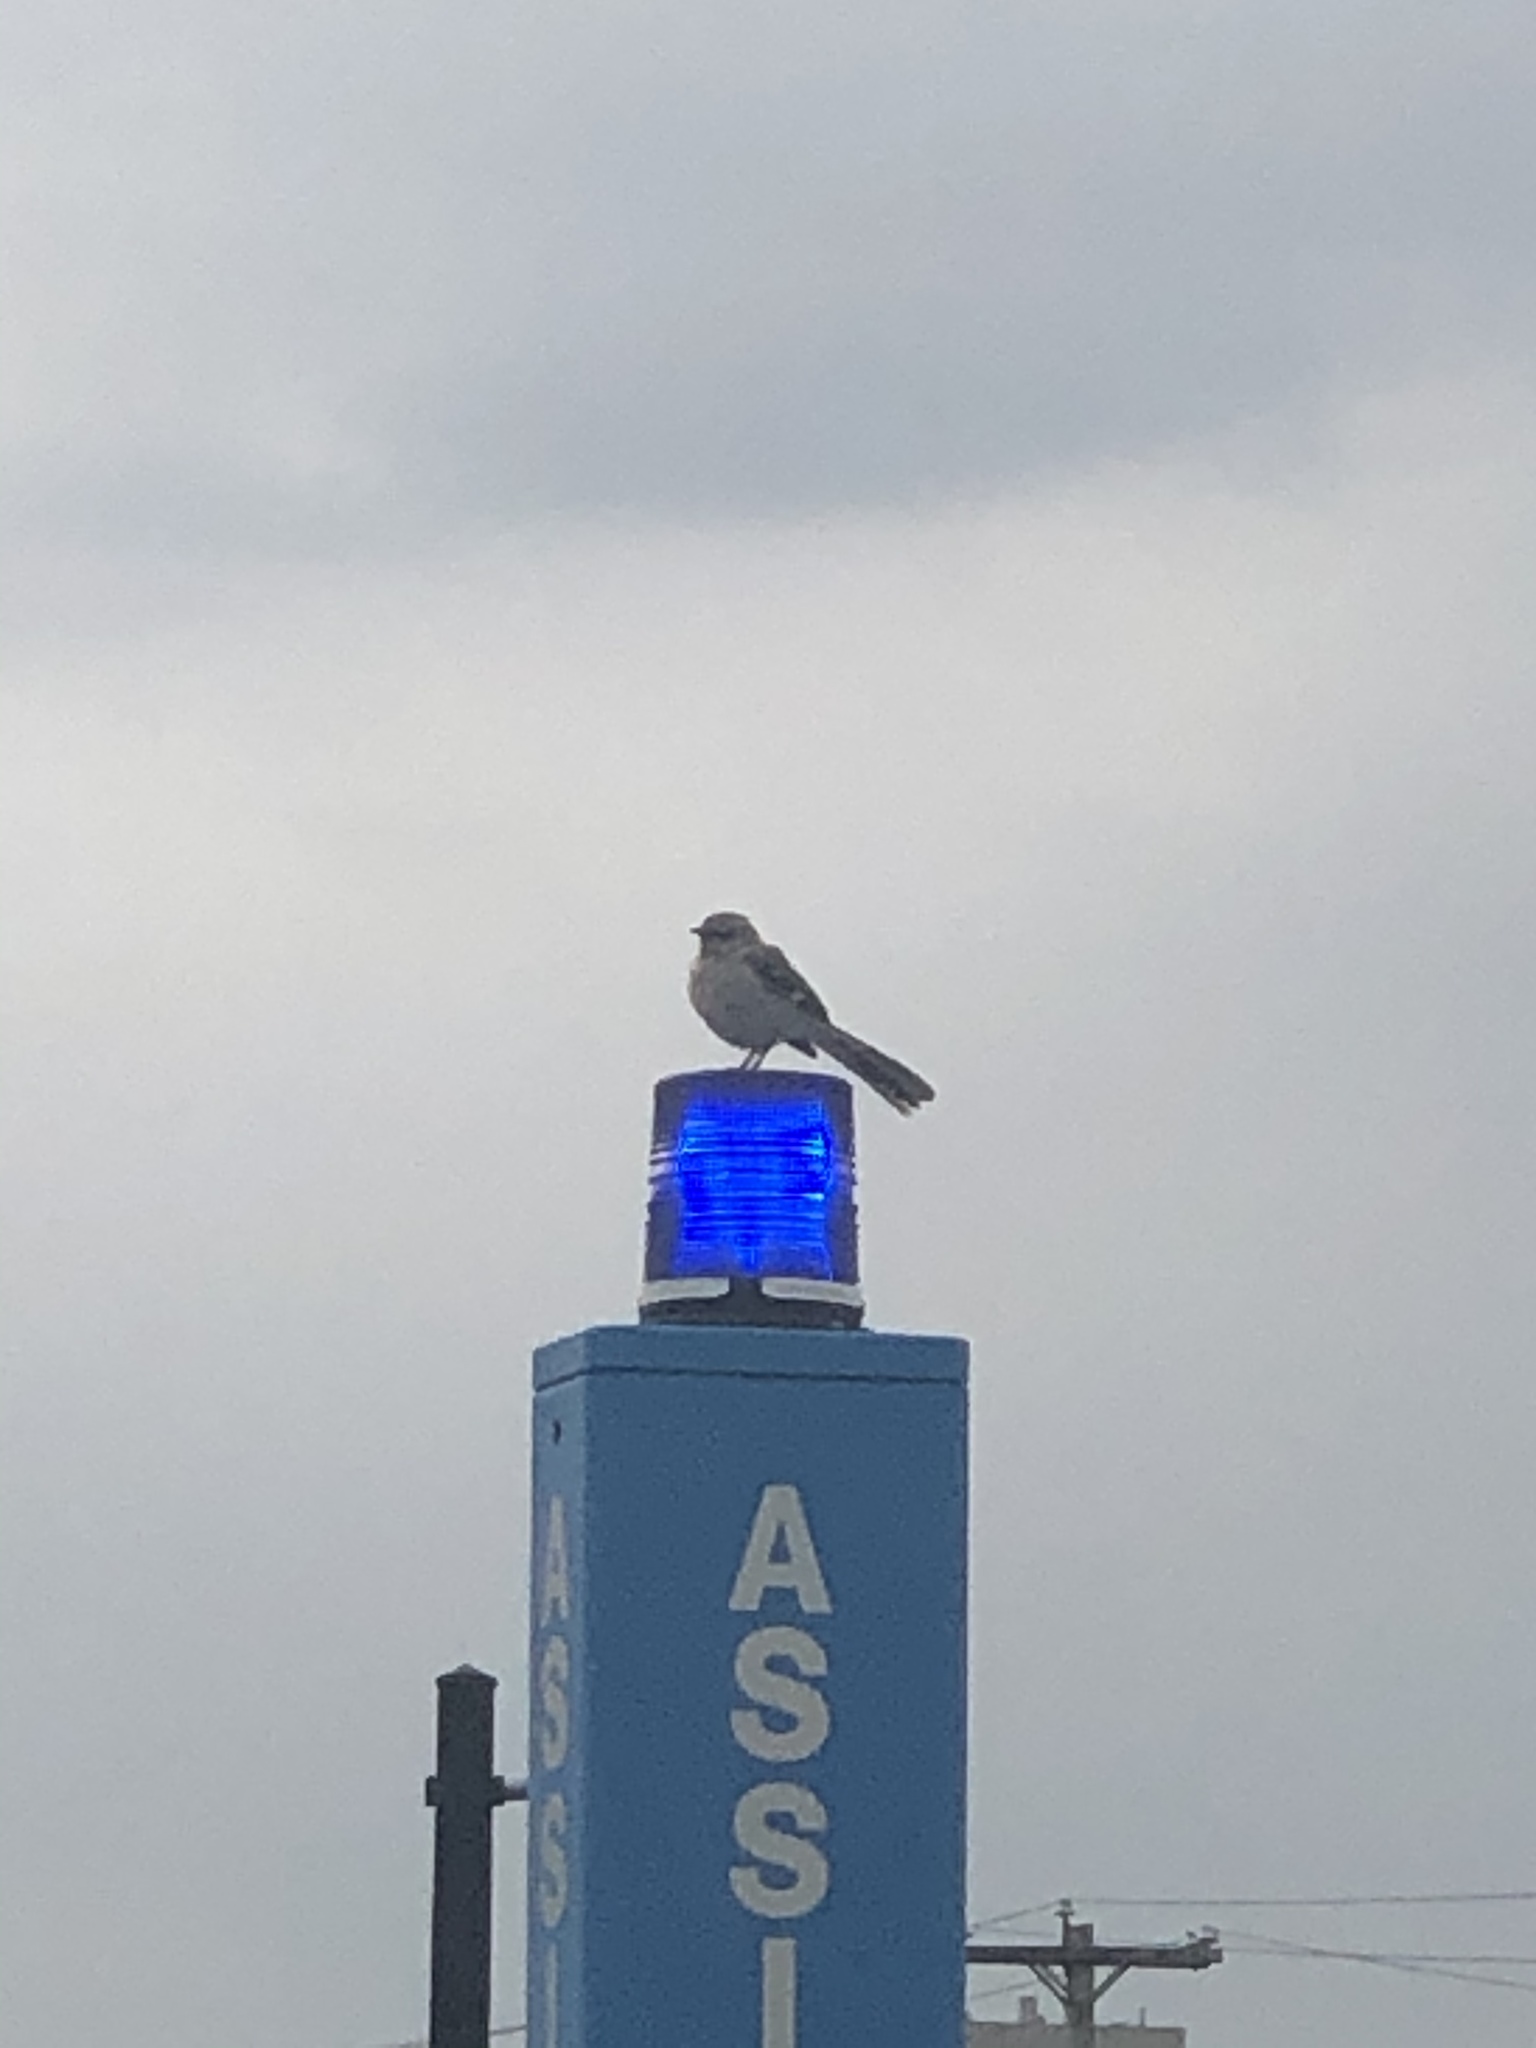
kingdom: Animalia
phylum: Chordata
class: Aves
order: Passeriformes
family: Mimidae
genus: Mimus
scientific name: Mimus polyglottos
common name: Northern mockingbird
